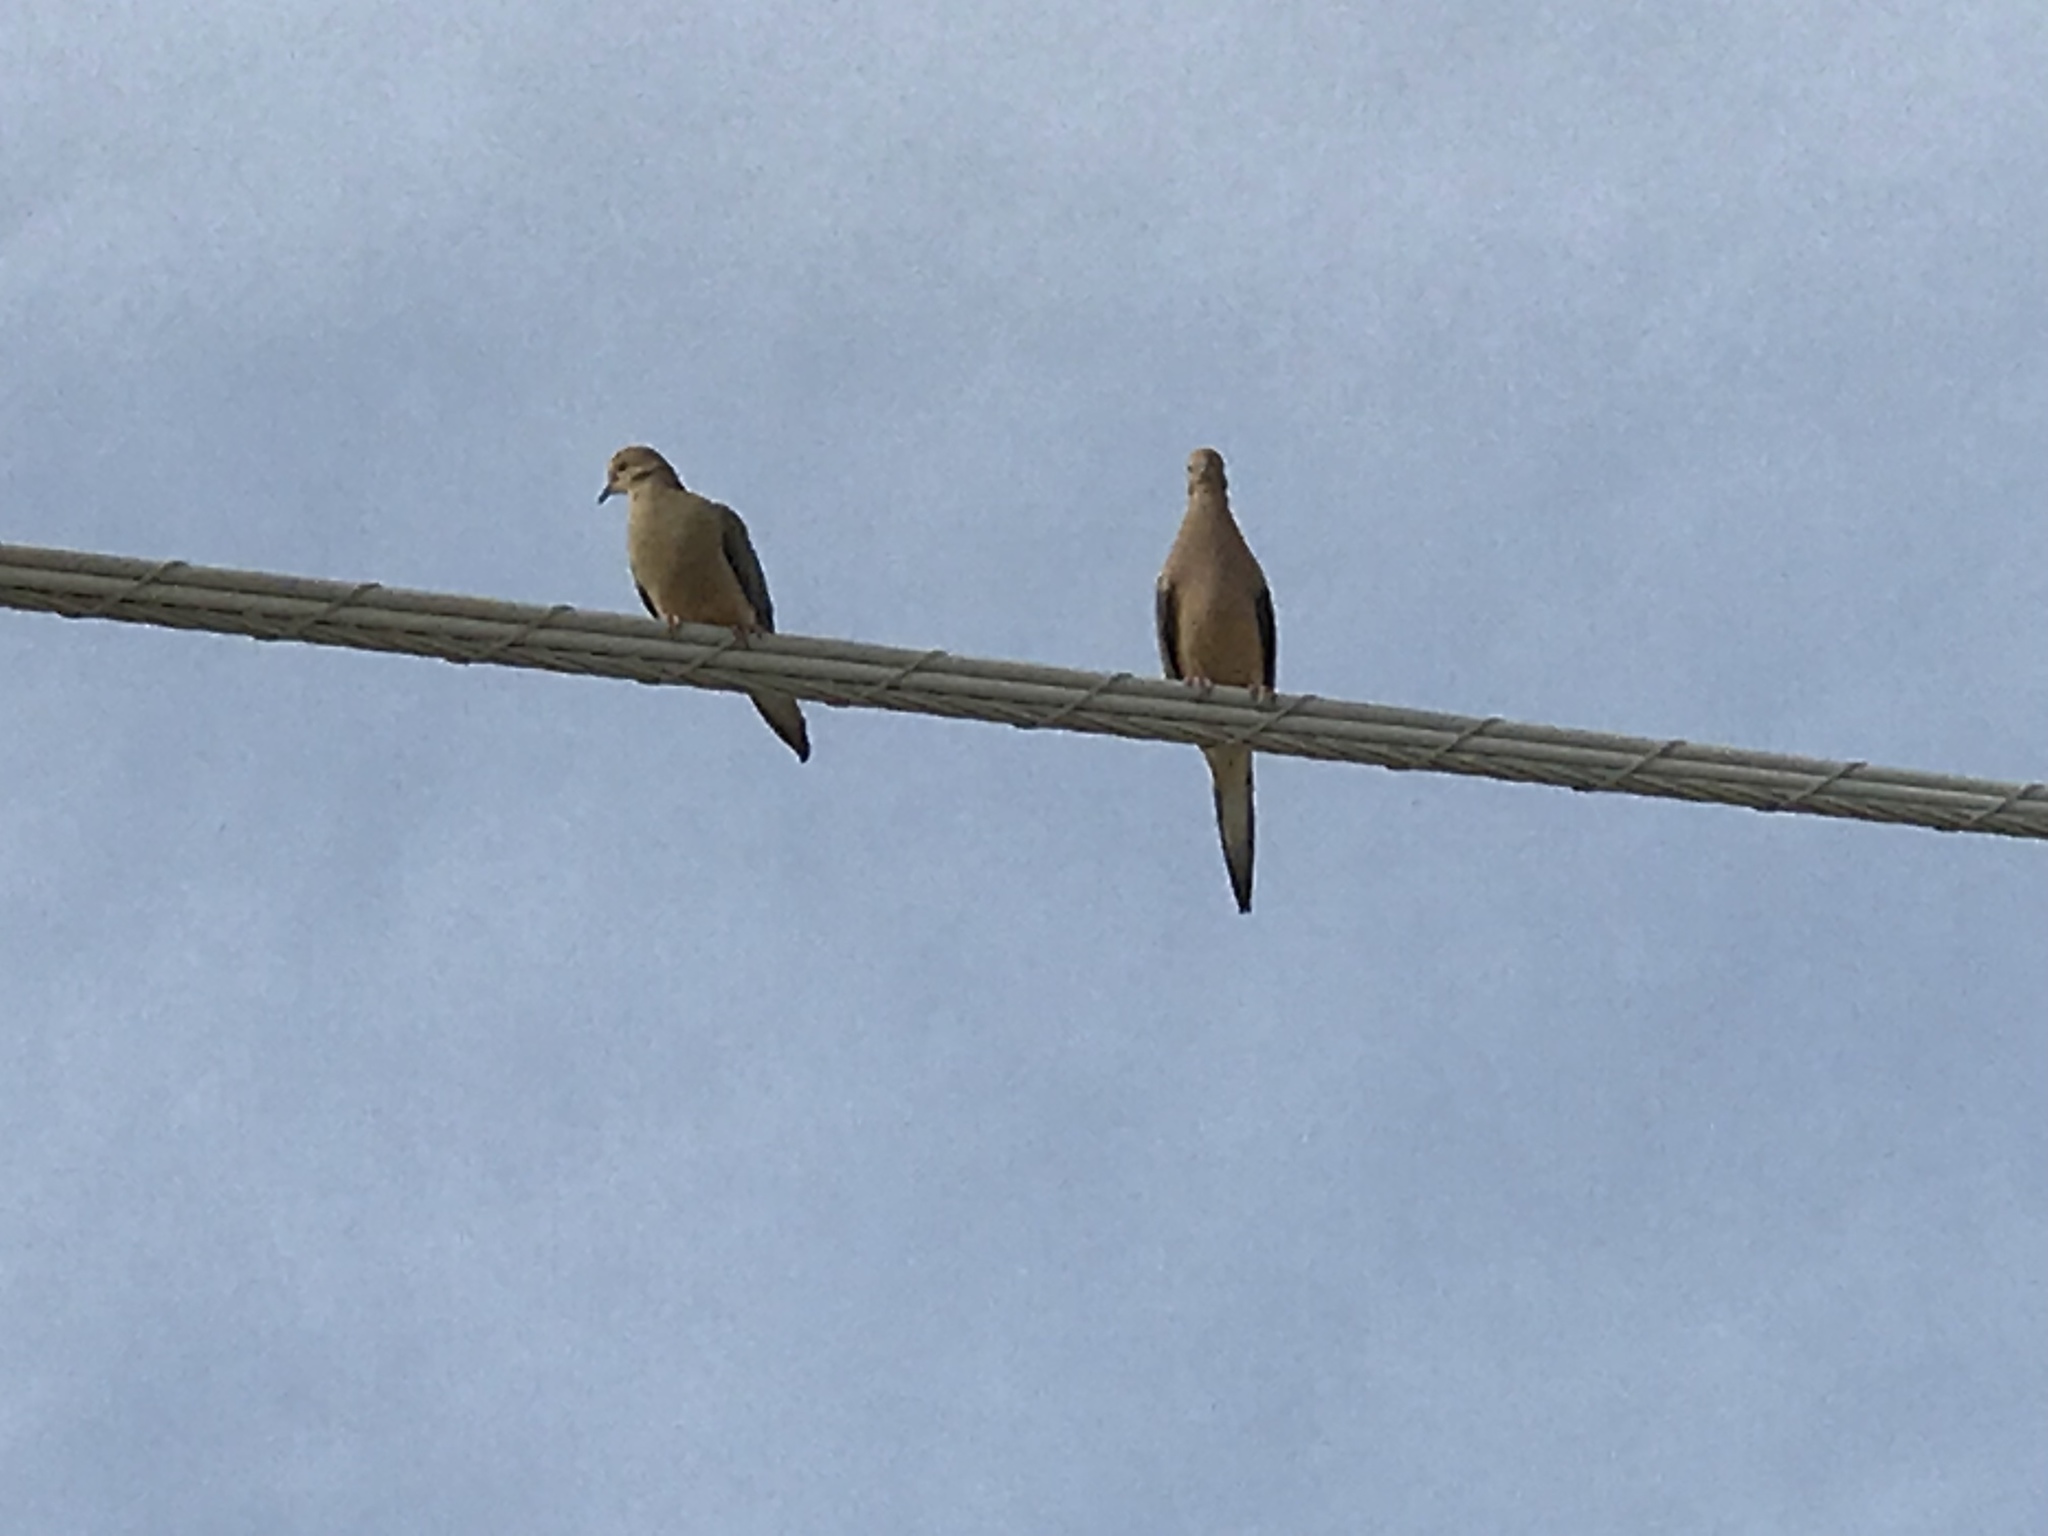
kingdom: Animalia
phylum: Chordata
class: Aves
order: Columbiformes
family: Columbidae
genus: Zenaida
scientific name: Zenaida macroura
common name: Mourning dove
